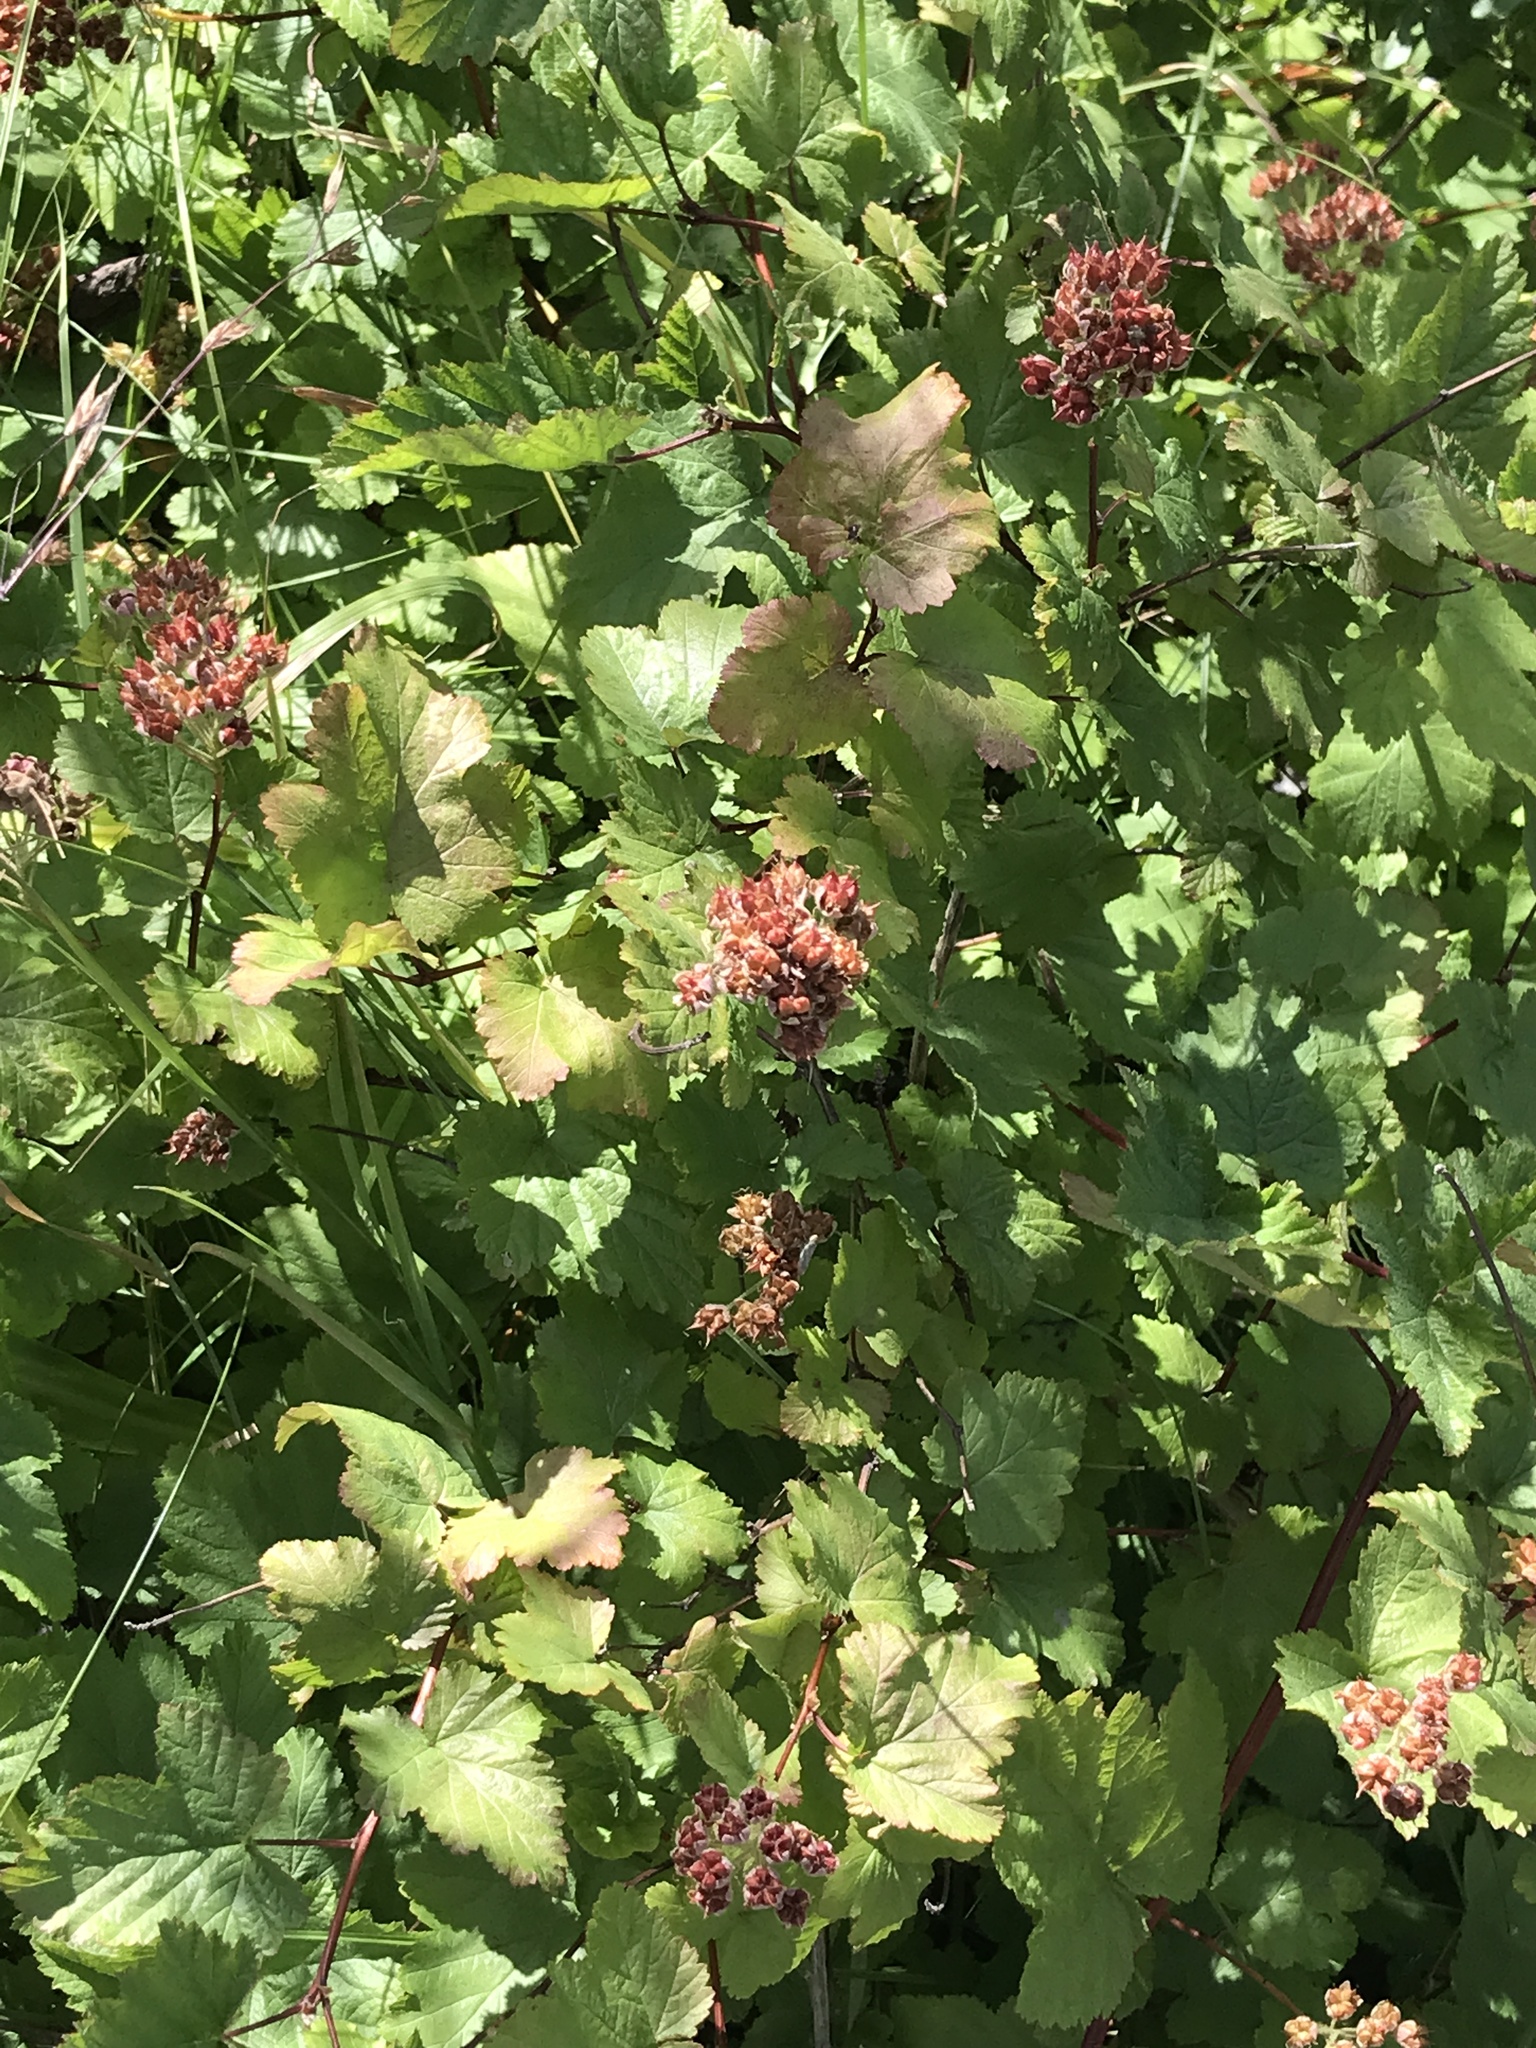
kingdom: Plantae
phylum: Tracheophyta
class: Magnoliopsida
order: Rosales
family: Rosaceae
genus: Physocarpus
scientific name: Physocarpus capitatus
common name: Pacific ninebark
